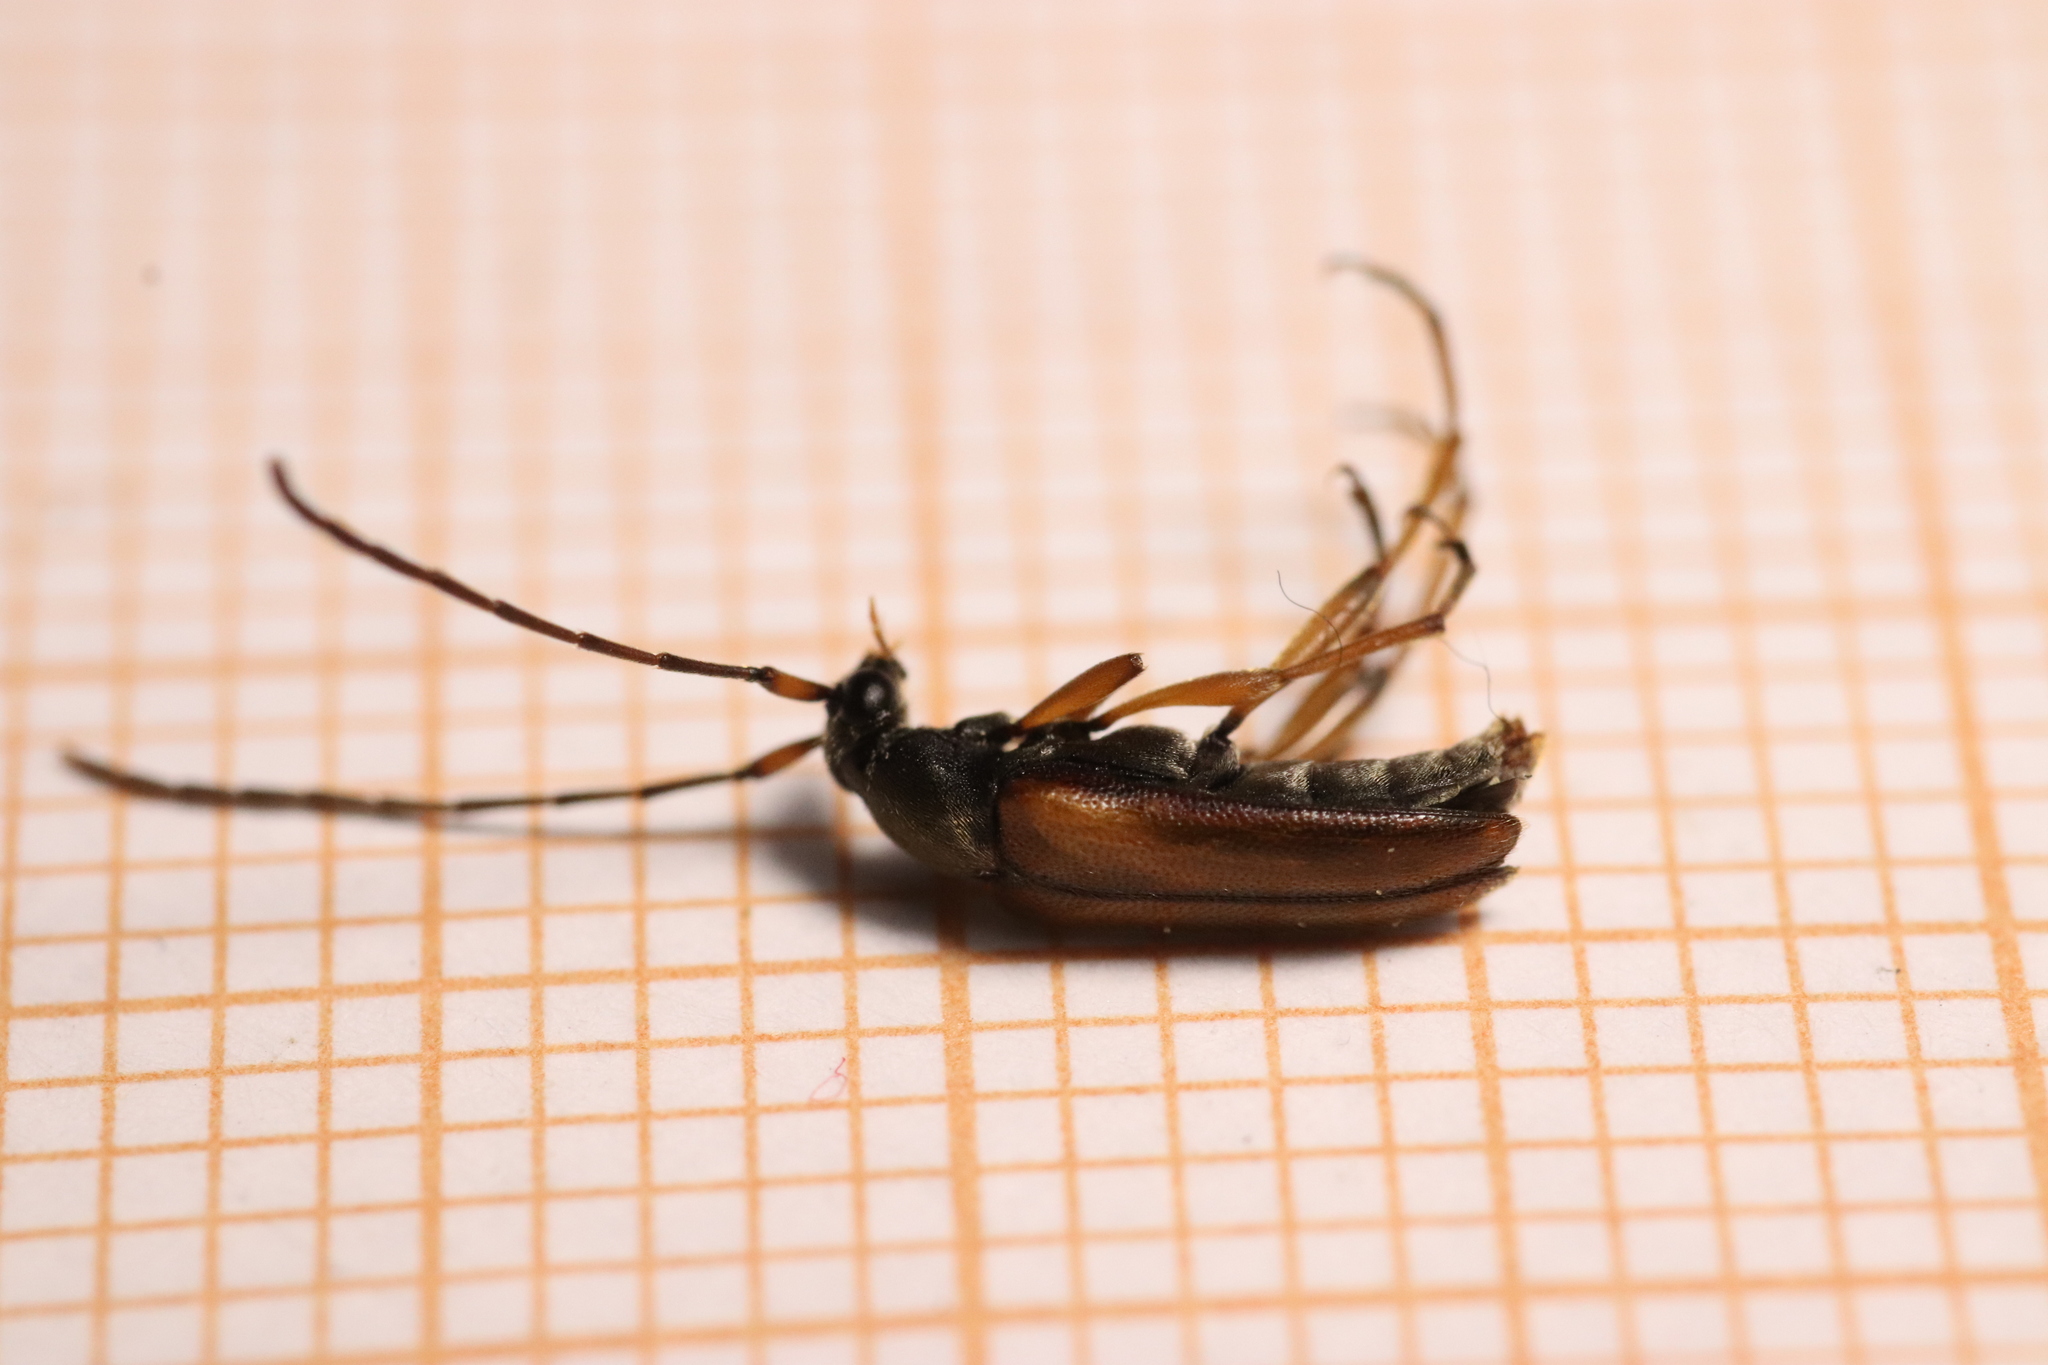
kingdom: Animalia
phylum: Arthropoda
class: Insecta
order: Coleoptera
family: Cerambycidae
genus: Alosterna
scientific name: Alosterna tabacicolor
